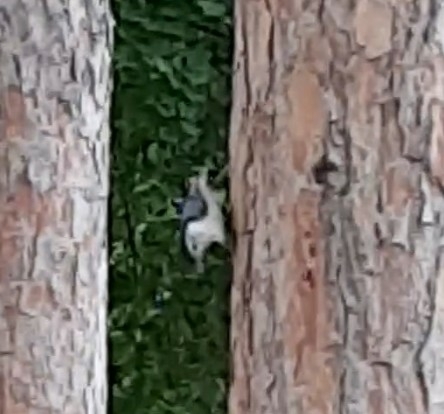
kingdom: Animalia
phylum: Chordata
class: Aves
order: Passeriformes
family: Sittidae
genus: Sitta
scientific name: Sitta carolinensis
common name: White-breasted nuthatch
